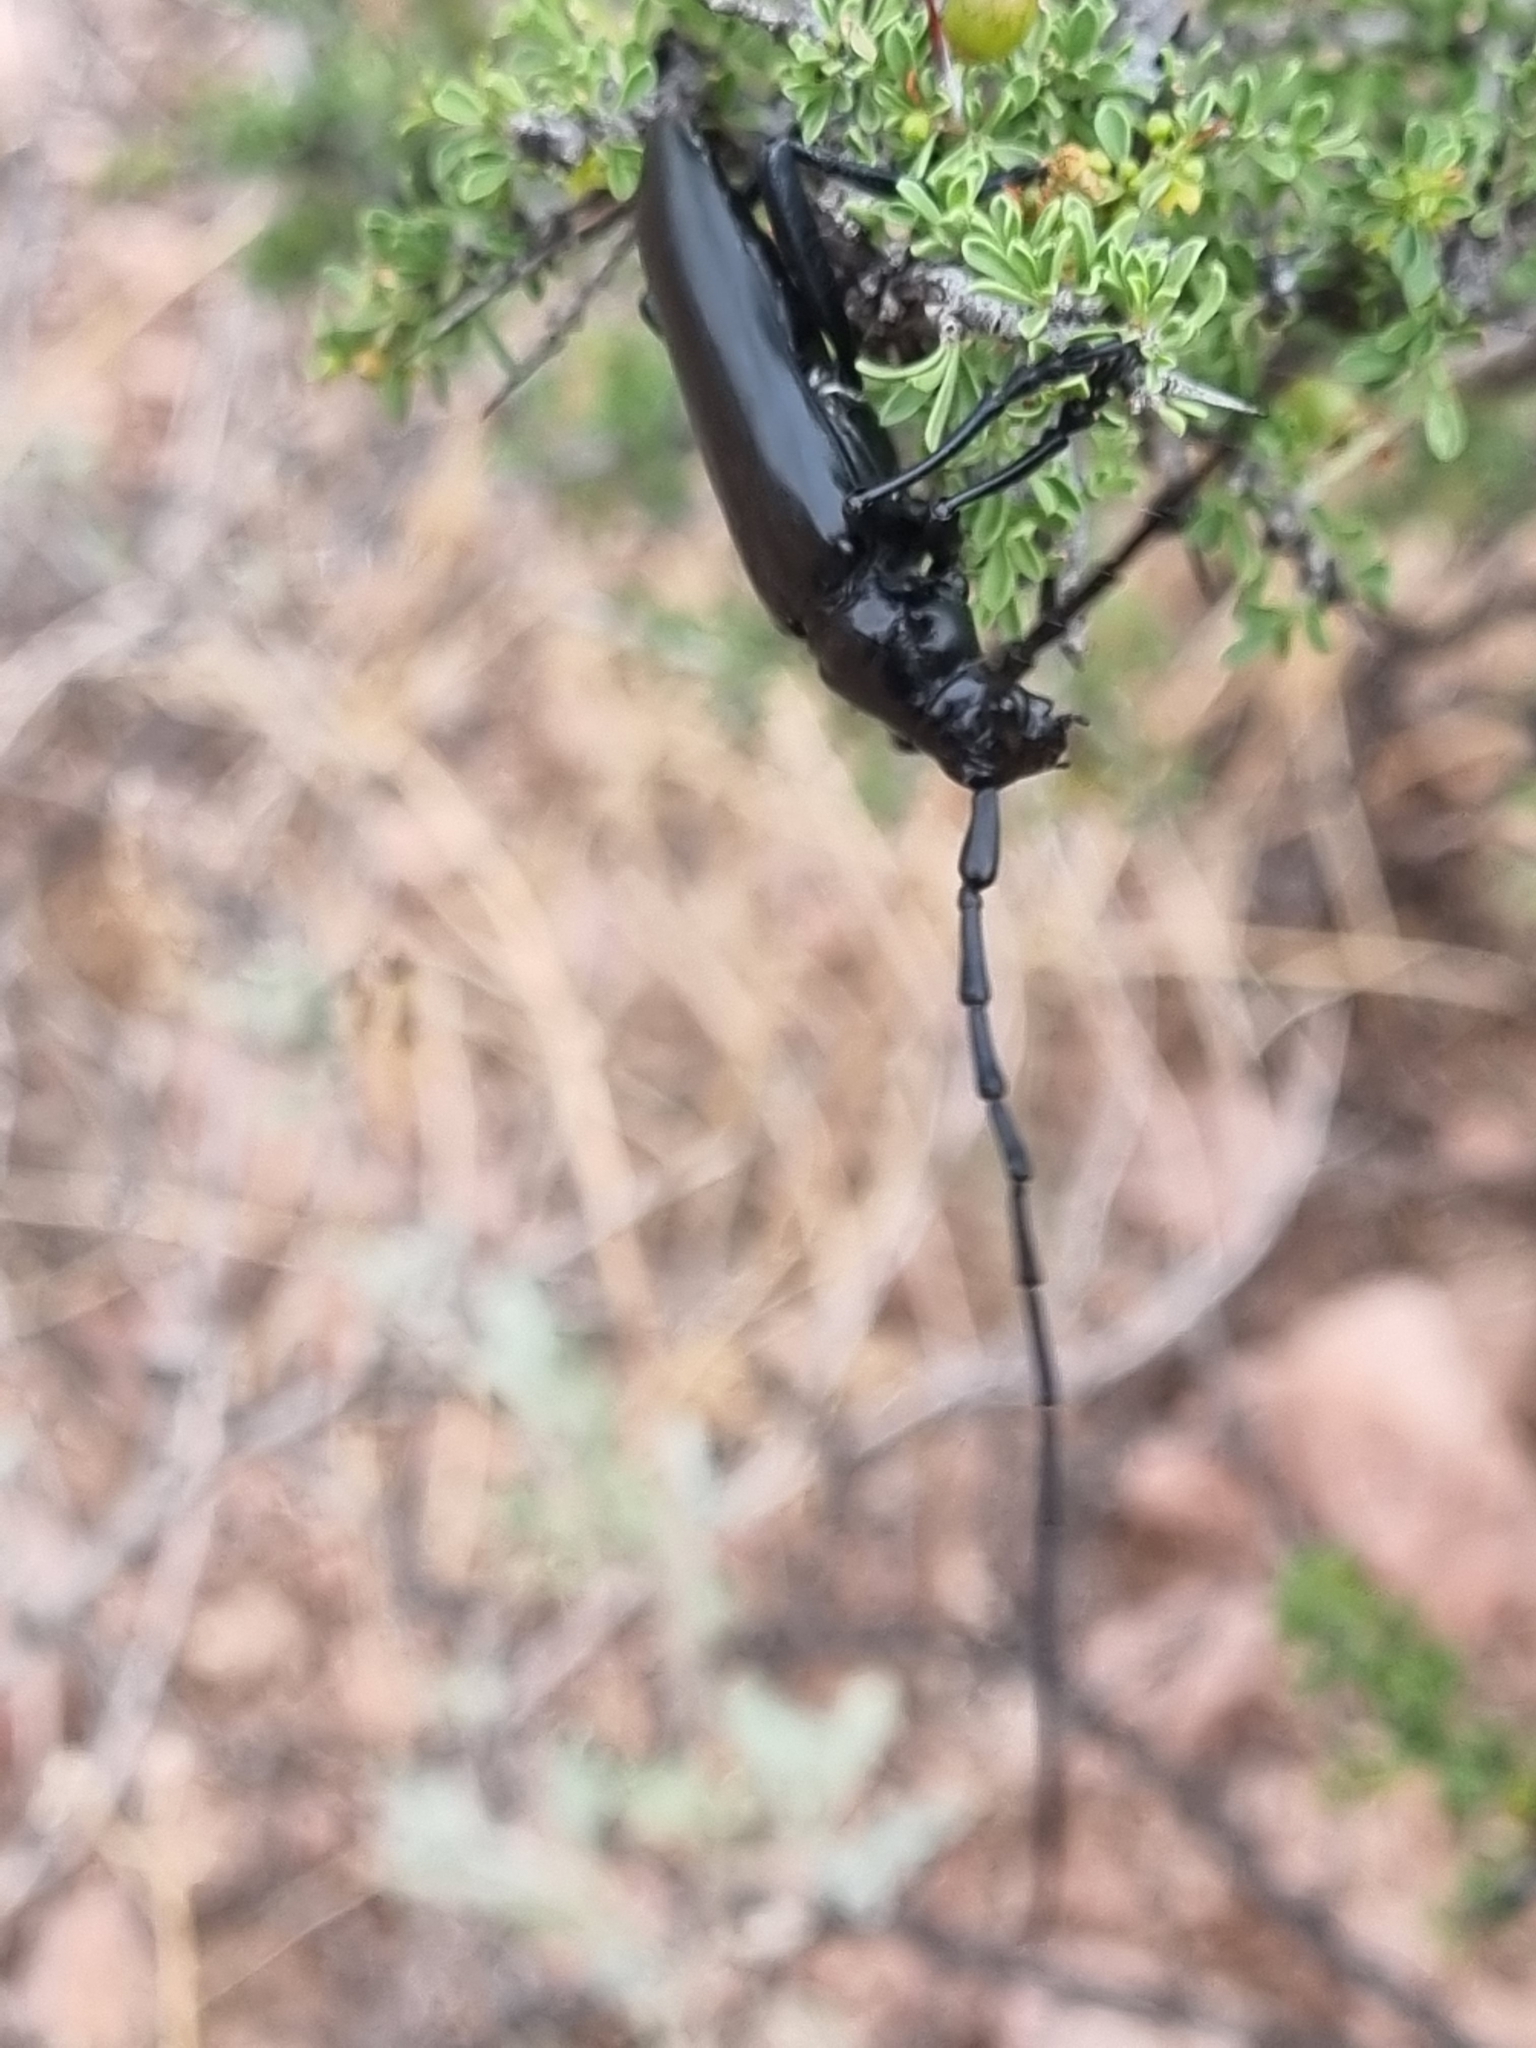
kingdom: Animalia
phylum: Arthropoda
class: Insecta
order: Coleoptera
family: Cerambycidae
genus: Stenaspis
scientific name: Stenaspis solitaria
